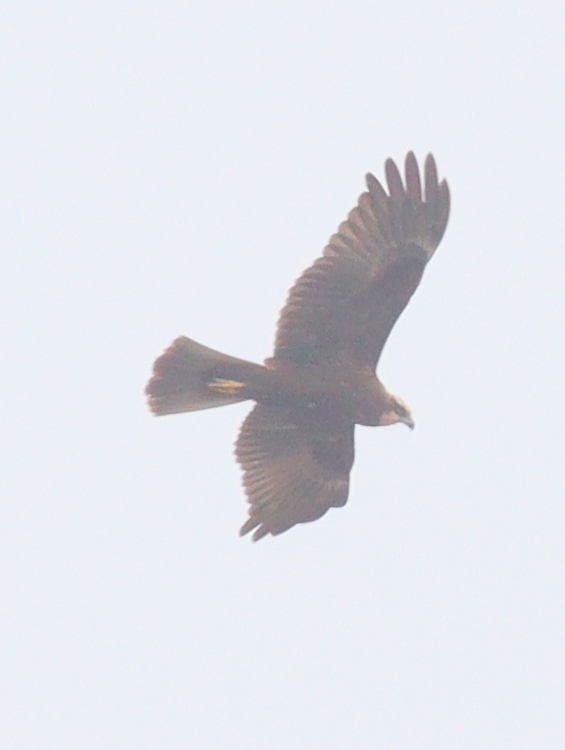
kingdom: Animalia
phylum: Chordata
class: Aves
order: Accipitriformes
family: Accipitridae
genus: Circus
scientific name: Circus aeruginosus
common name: Western marsh harrier
